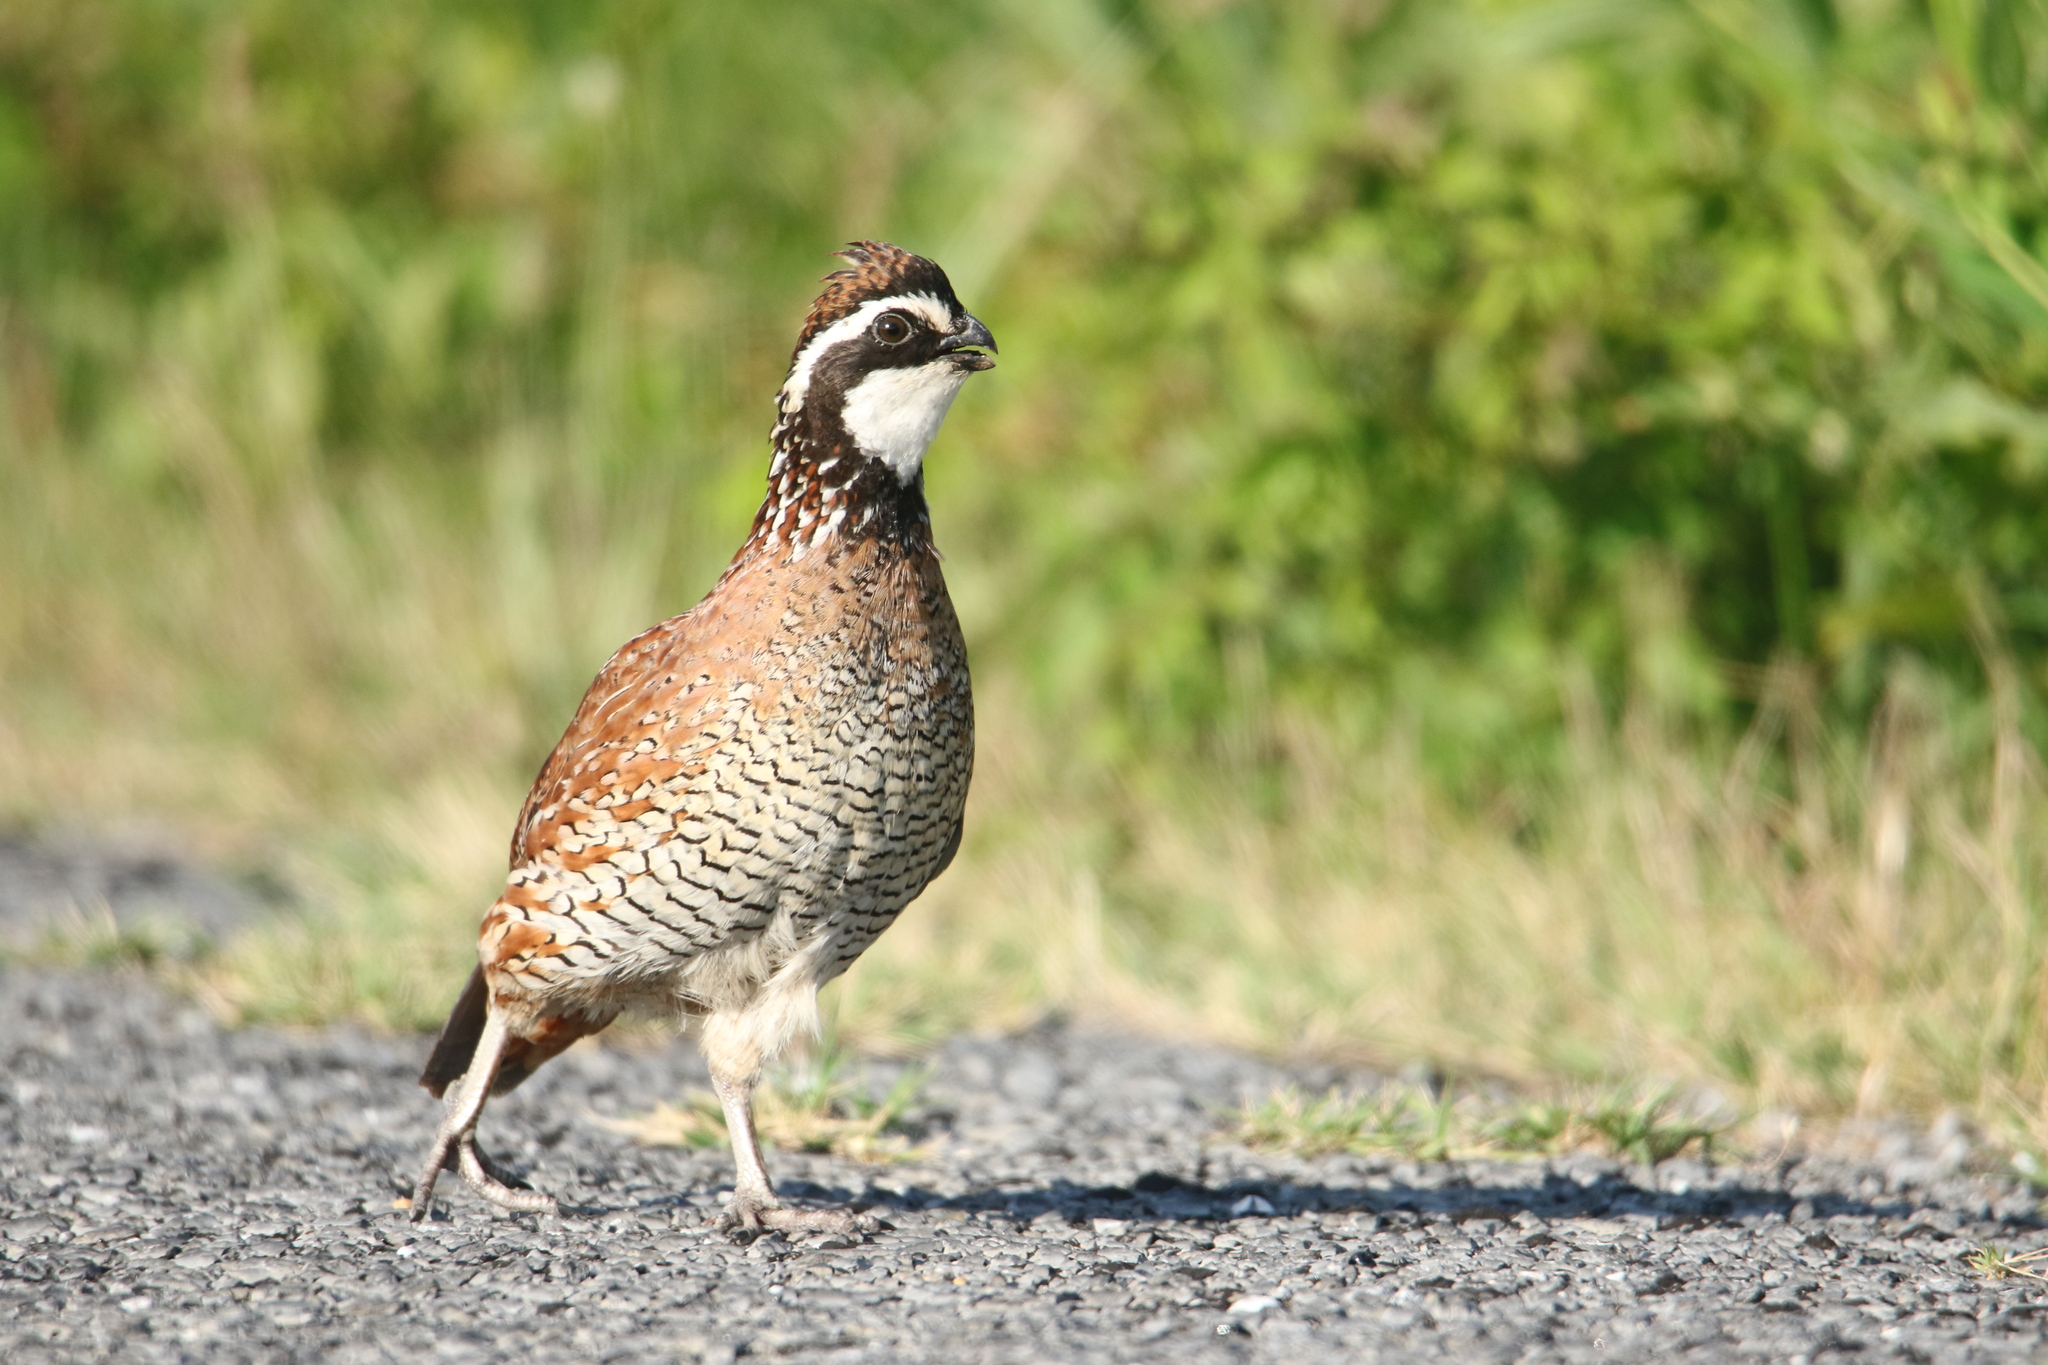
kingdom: Animalia
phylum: Chordata
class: Aves
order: Galliformes
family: Odontophoridae
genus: Colinus
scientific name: Colinus virginianus
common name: Northern bobwhite
